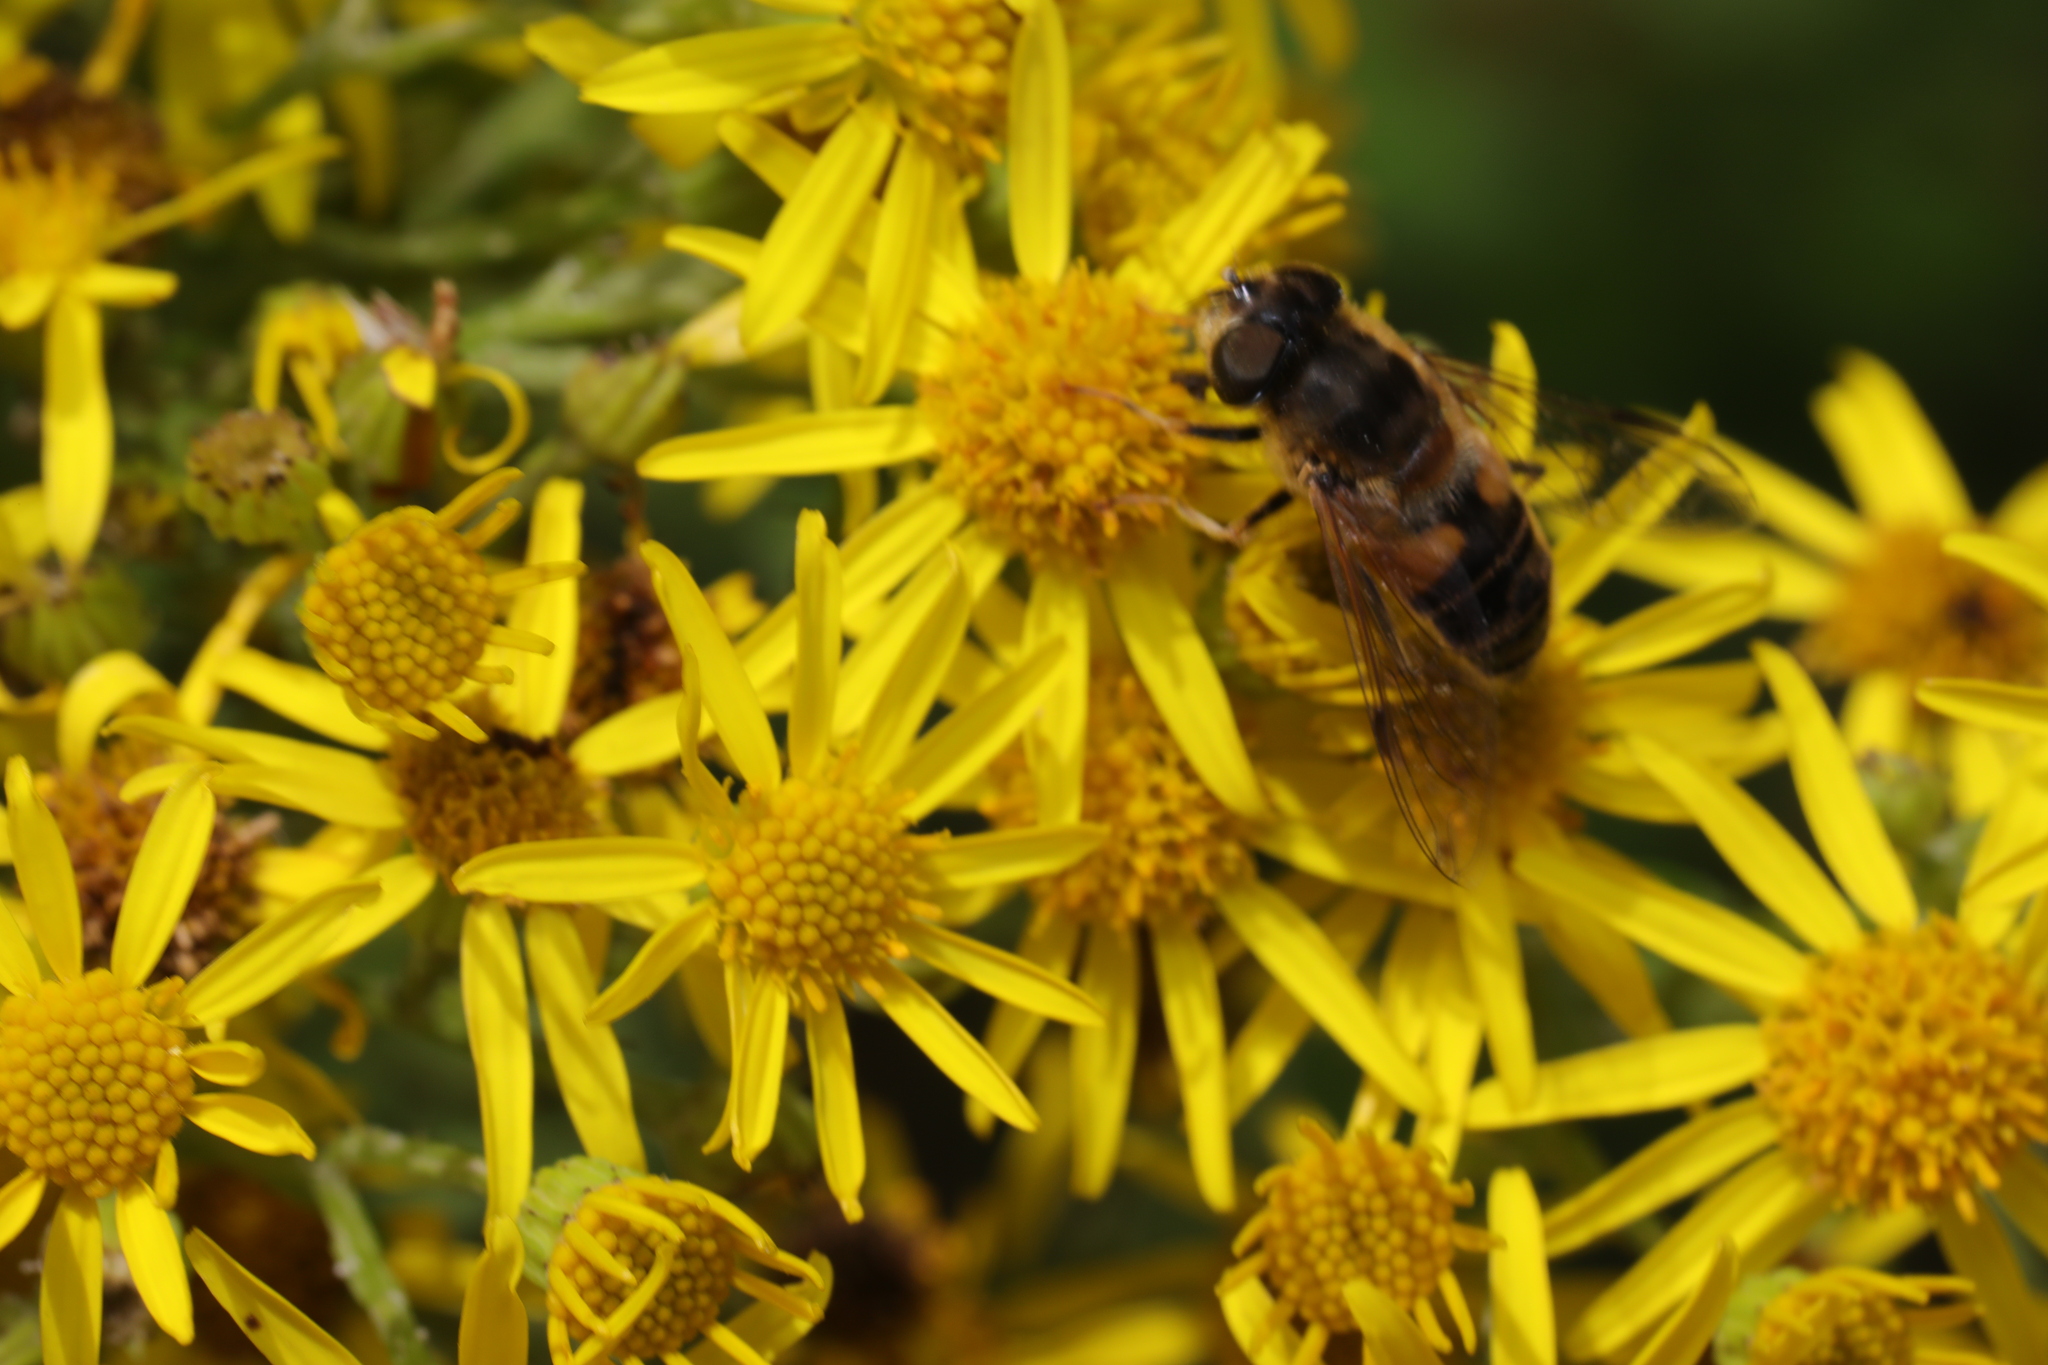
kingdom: Animalia
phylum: Arthropoda
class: Insecta
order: Diptera
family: Syrphidae
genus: Eristalis
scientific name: Eristalis pertinax
